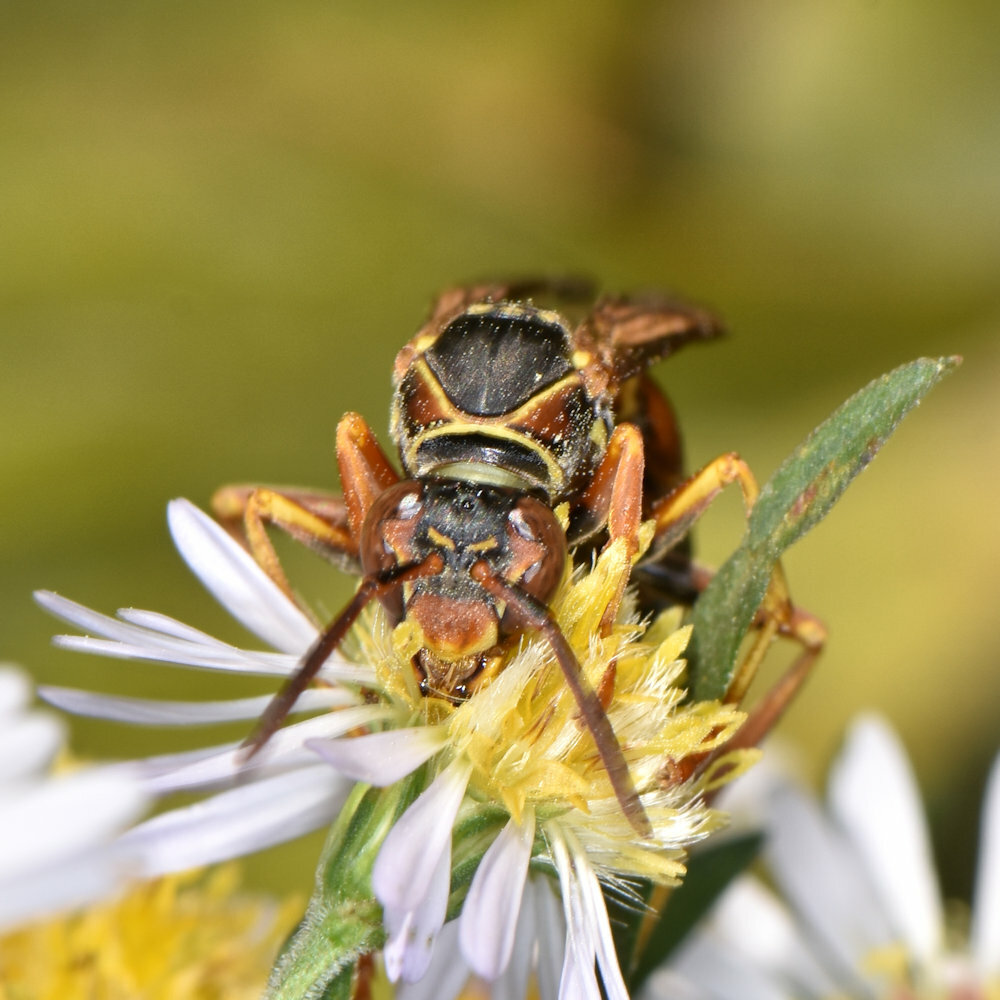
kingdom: Animalia
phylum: Arthropoda
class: Insecta
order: Hymenoptera
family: Eumenidae
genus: Polistes
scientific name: Polistes fuscatus
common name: Dark paper wasp
